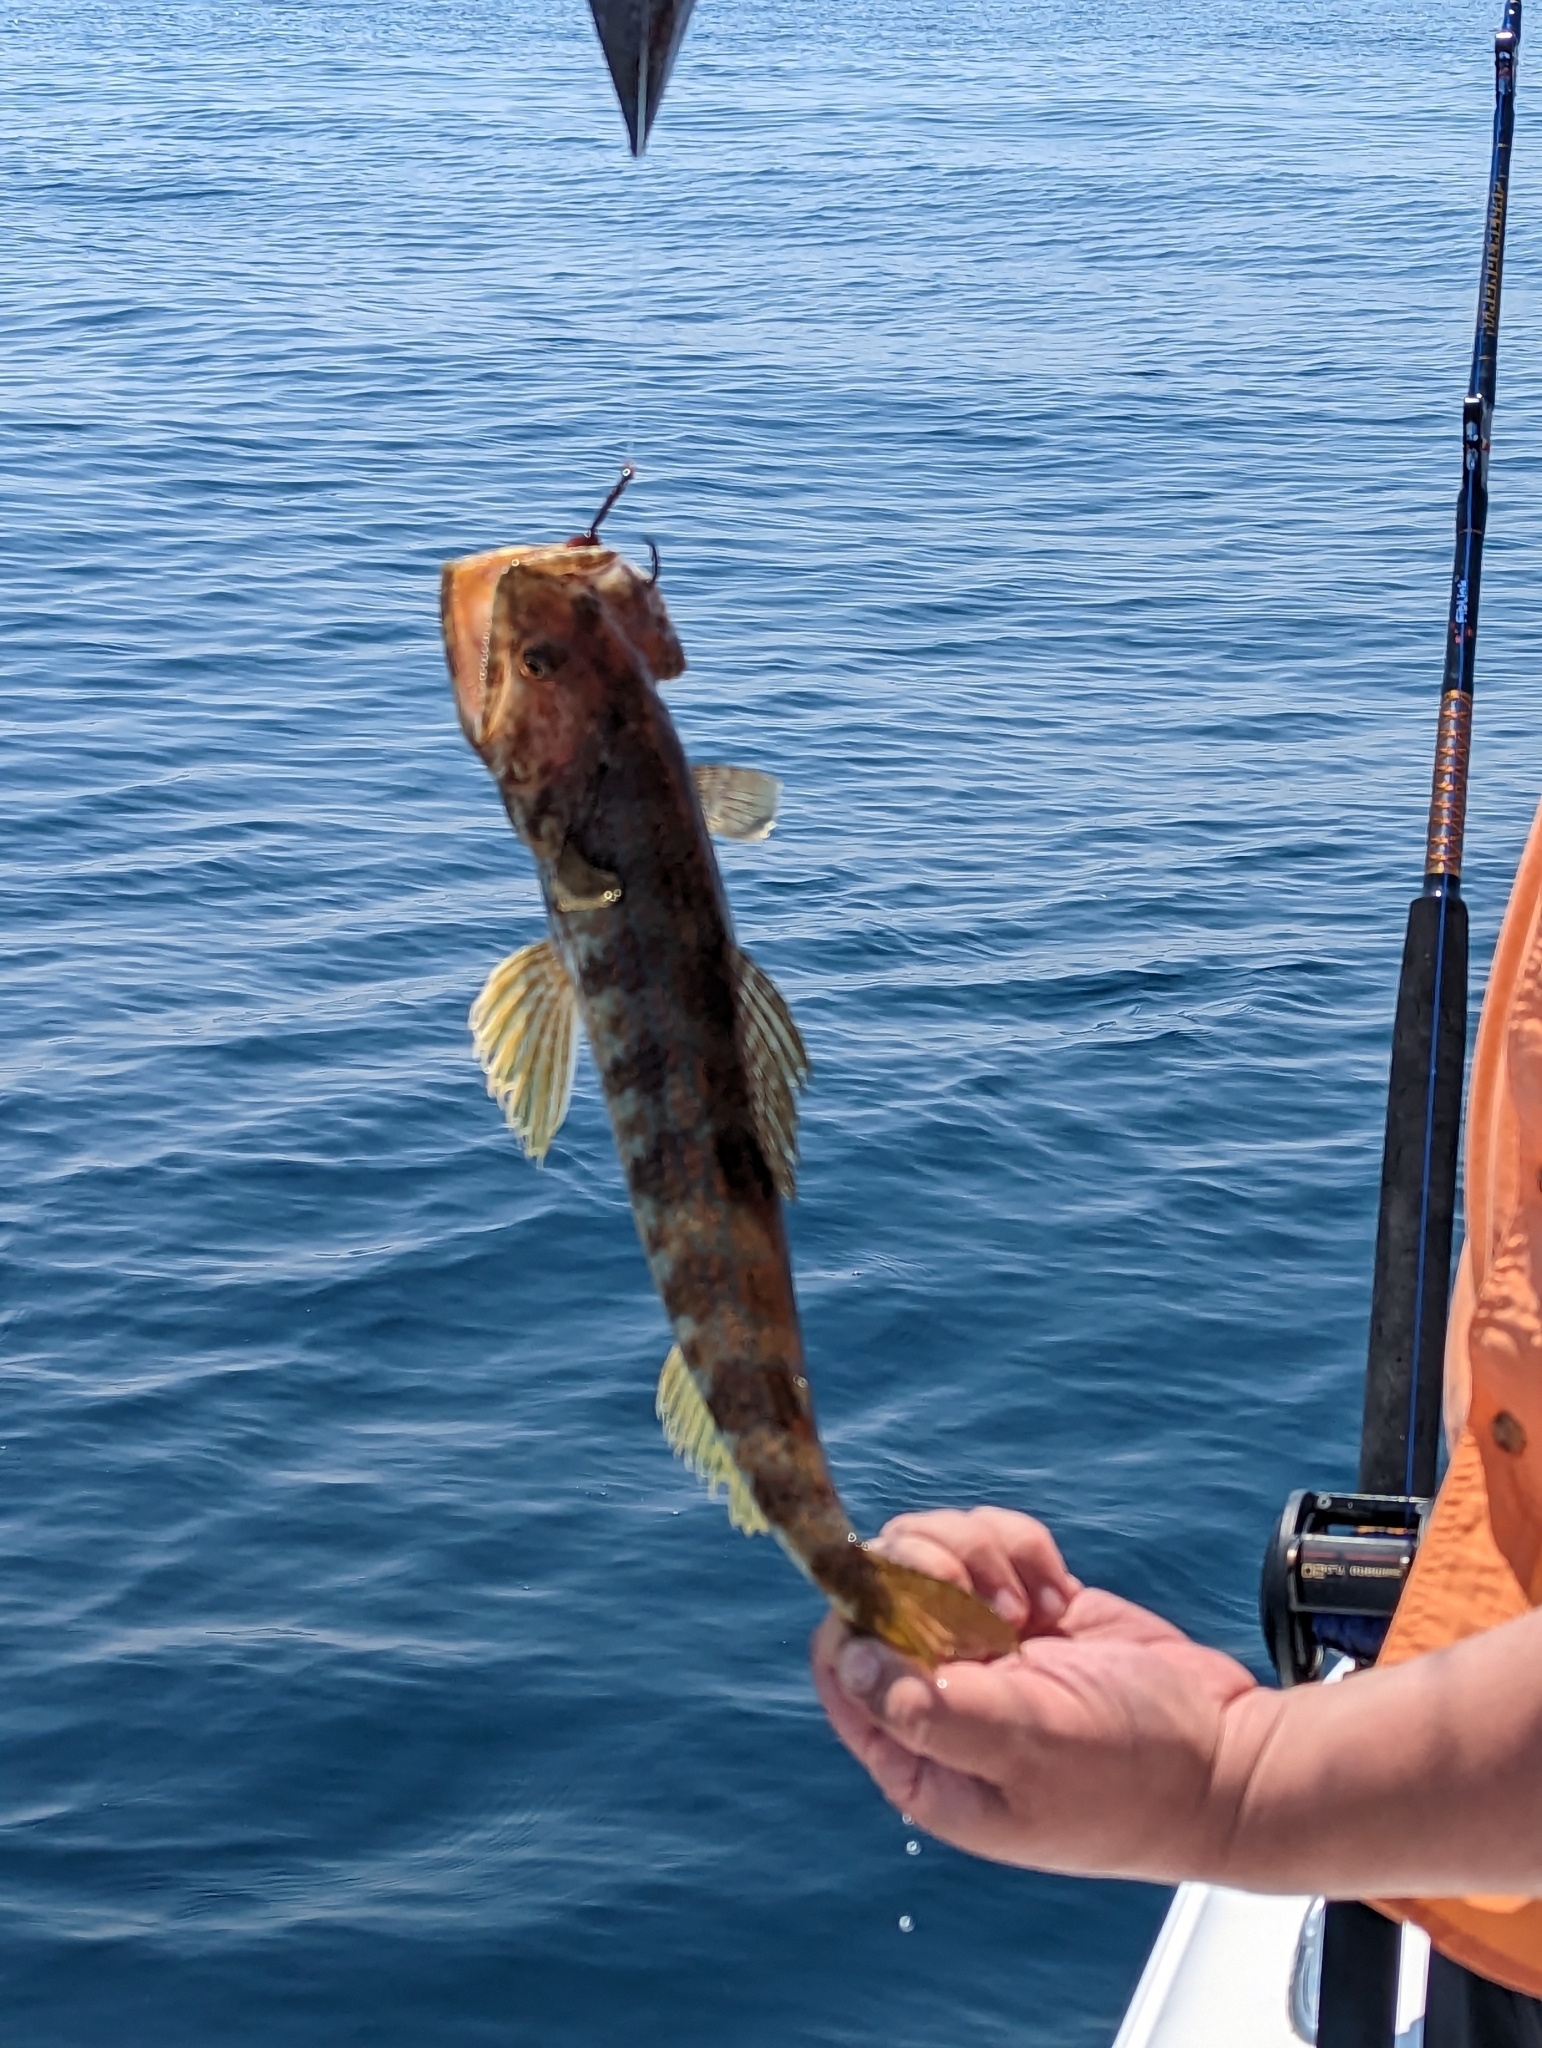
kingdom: Animalia
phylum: Chordata
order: Aulopiformes
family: Synodontidae
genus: Synodus
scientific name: Synodus intermedius
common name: Sand diver
